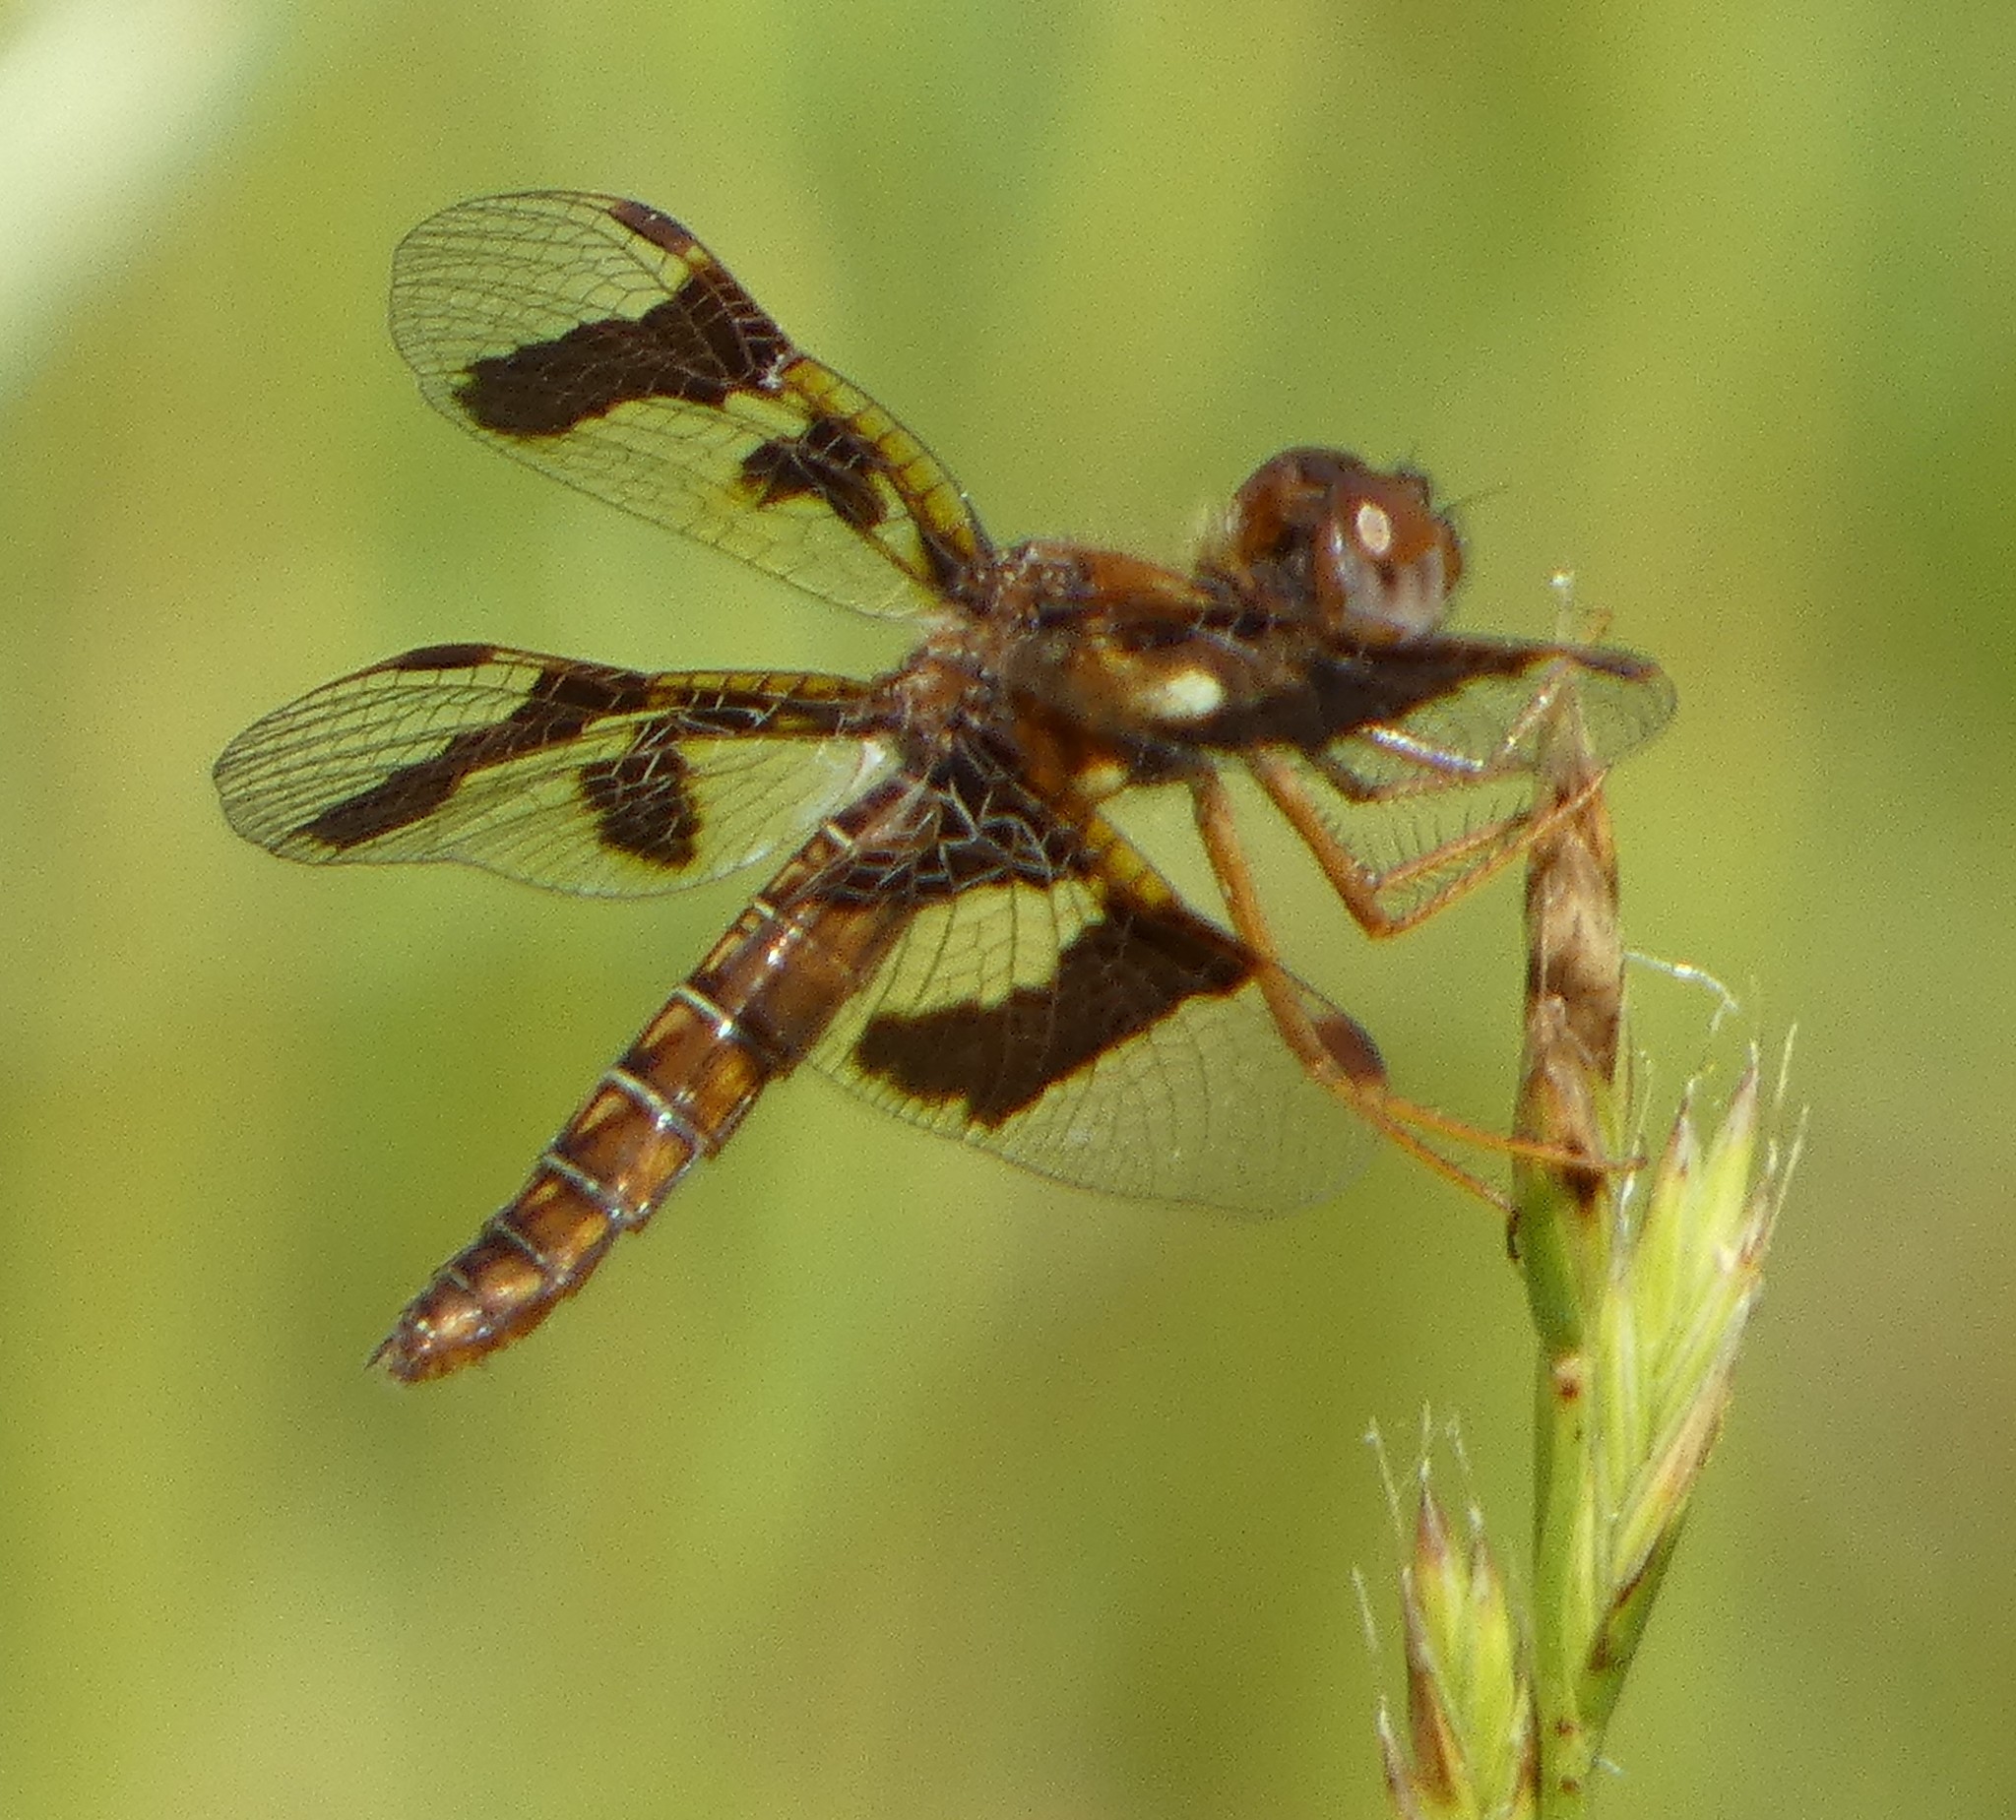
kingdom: Animalia
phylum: Arthropoda
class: Insecta
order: Odonata
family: Libellulidae
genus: Perithemis
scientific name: Perithemis tenera
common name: Eastern amberwing
